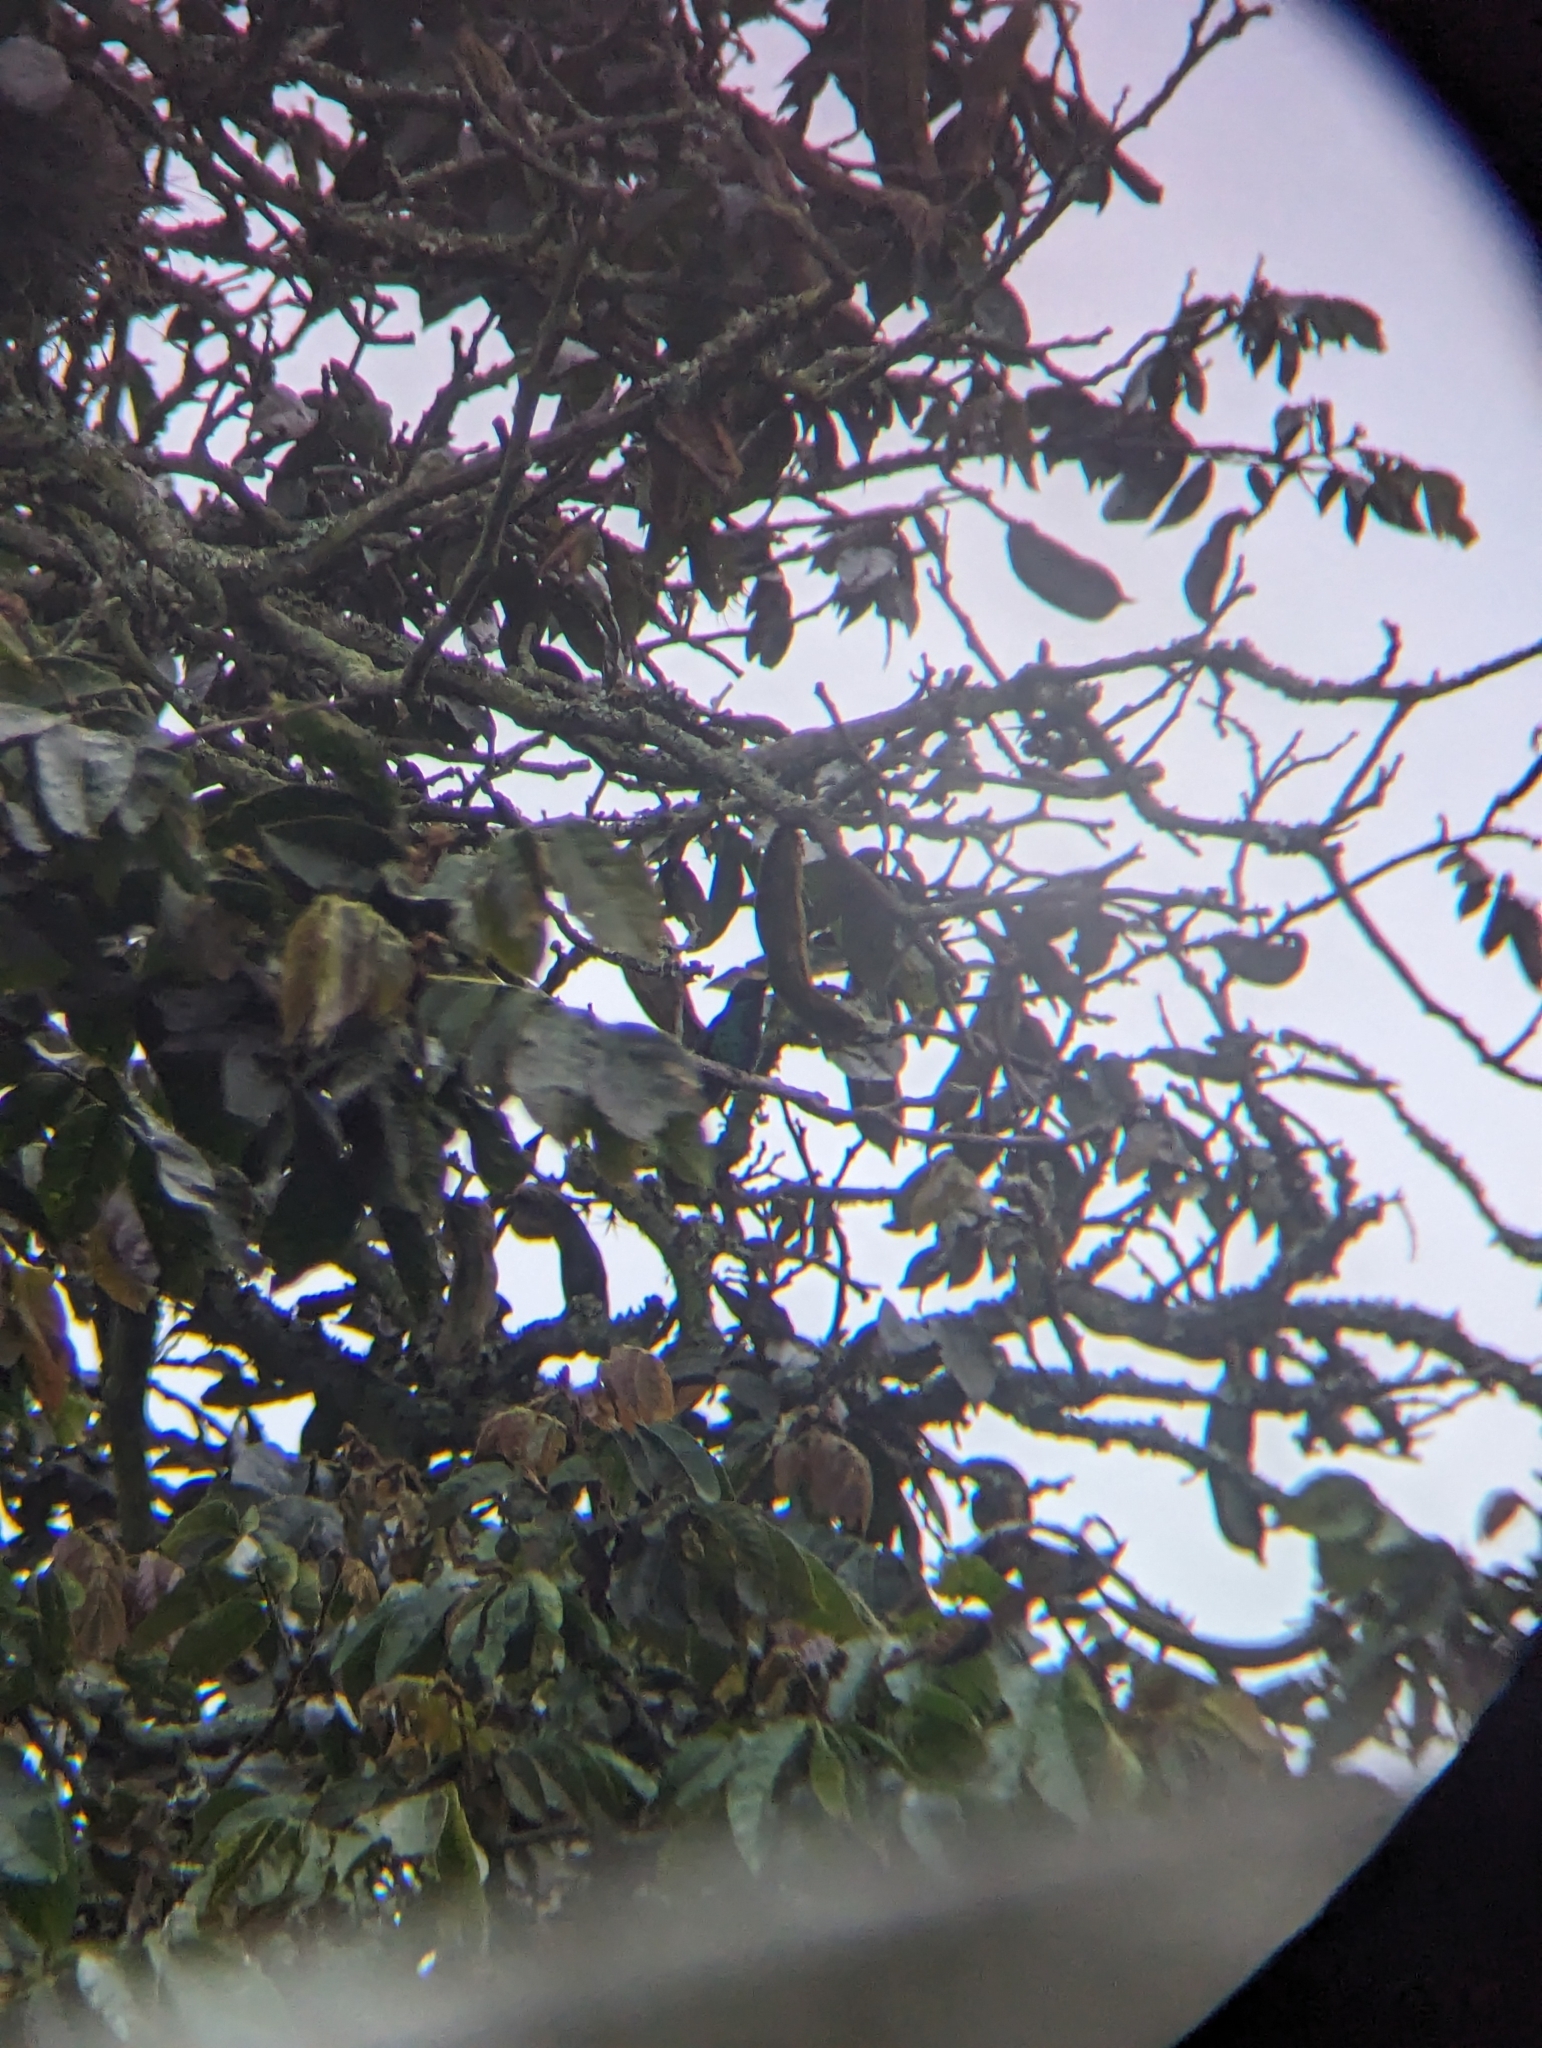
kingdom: Animalia
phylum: Chordata
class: Aves
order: Apodiformes
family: Trochilidae
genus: Colibri
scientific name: Colibri coruscans
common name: Sparkling violetear
